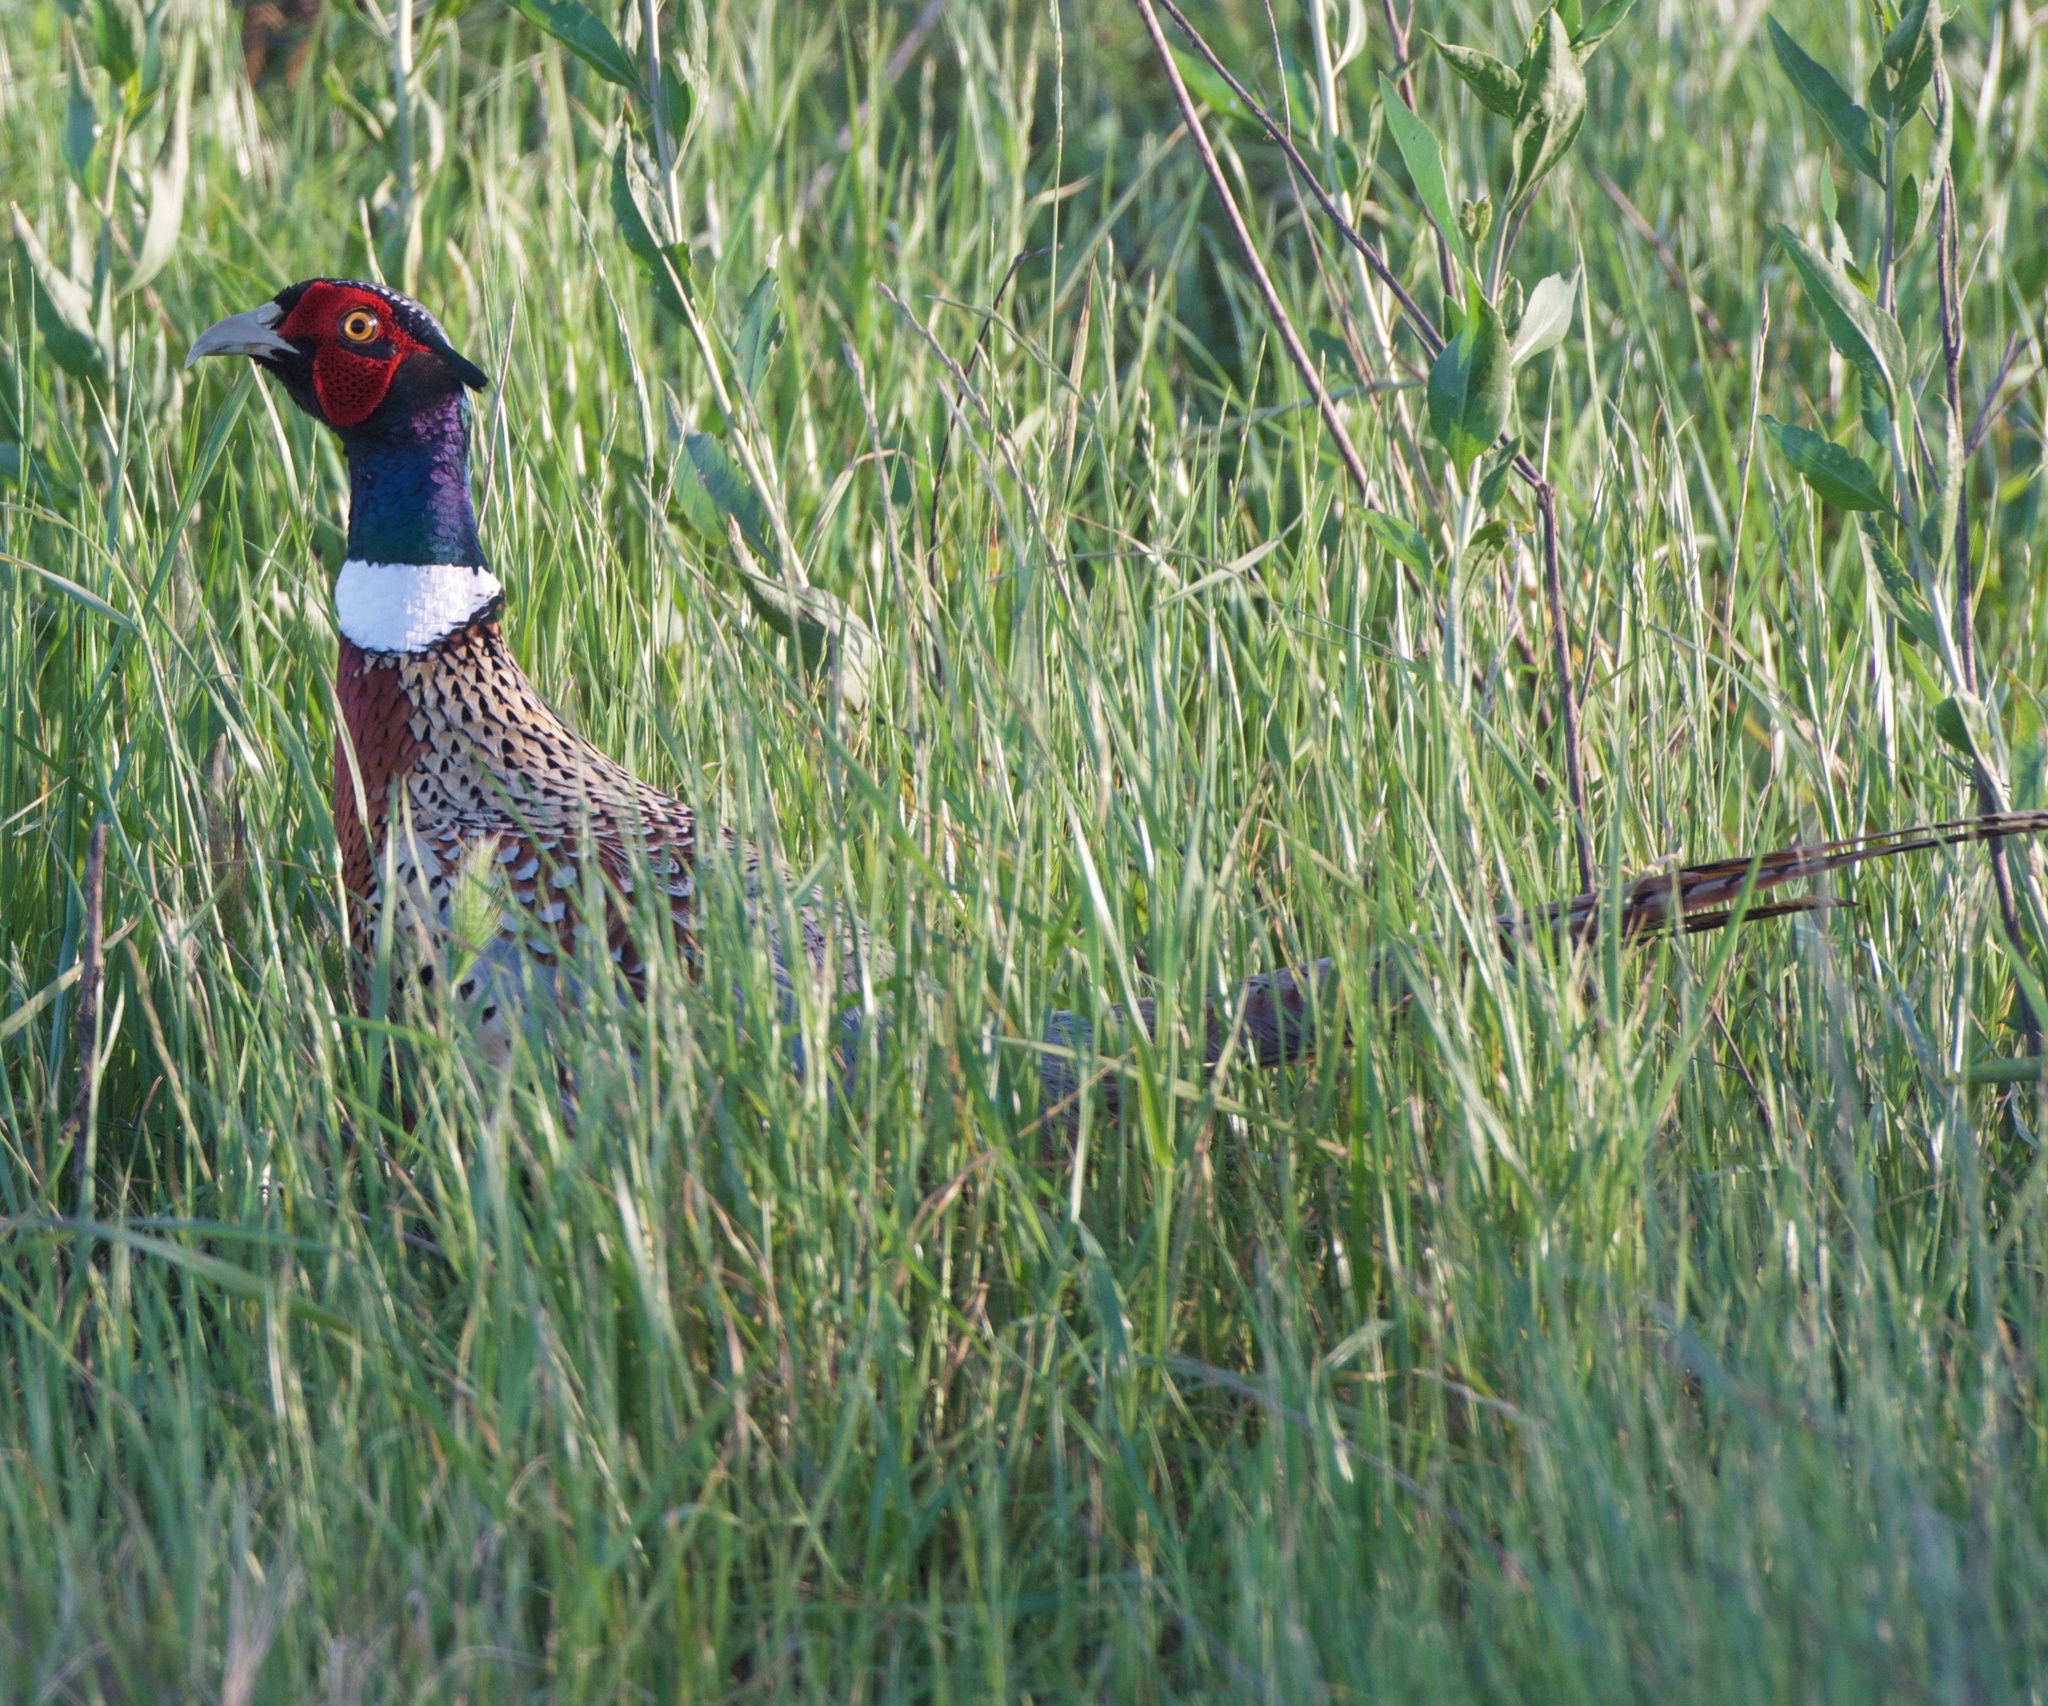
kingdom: Animalia
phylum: Chordata
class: Aves
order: Galliformes
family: Phasianidae
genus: Phasianus
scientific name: Phasianus colchicus
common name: Common pheasant
